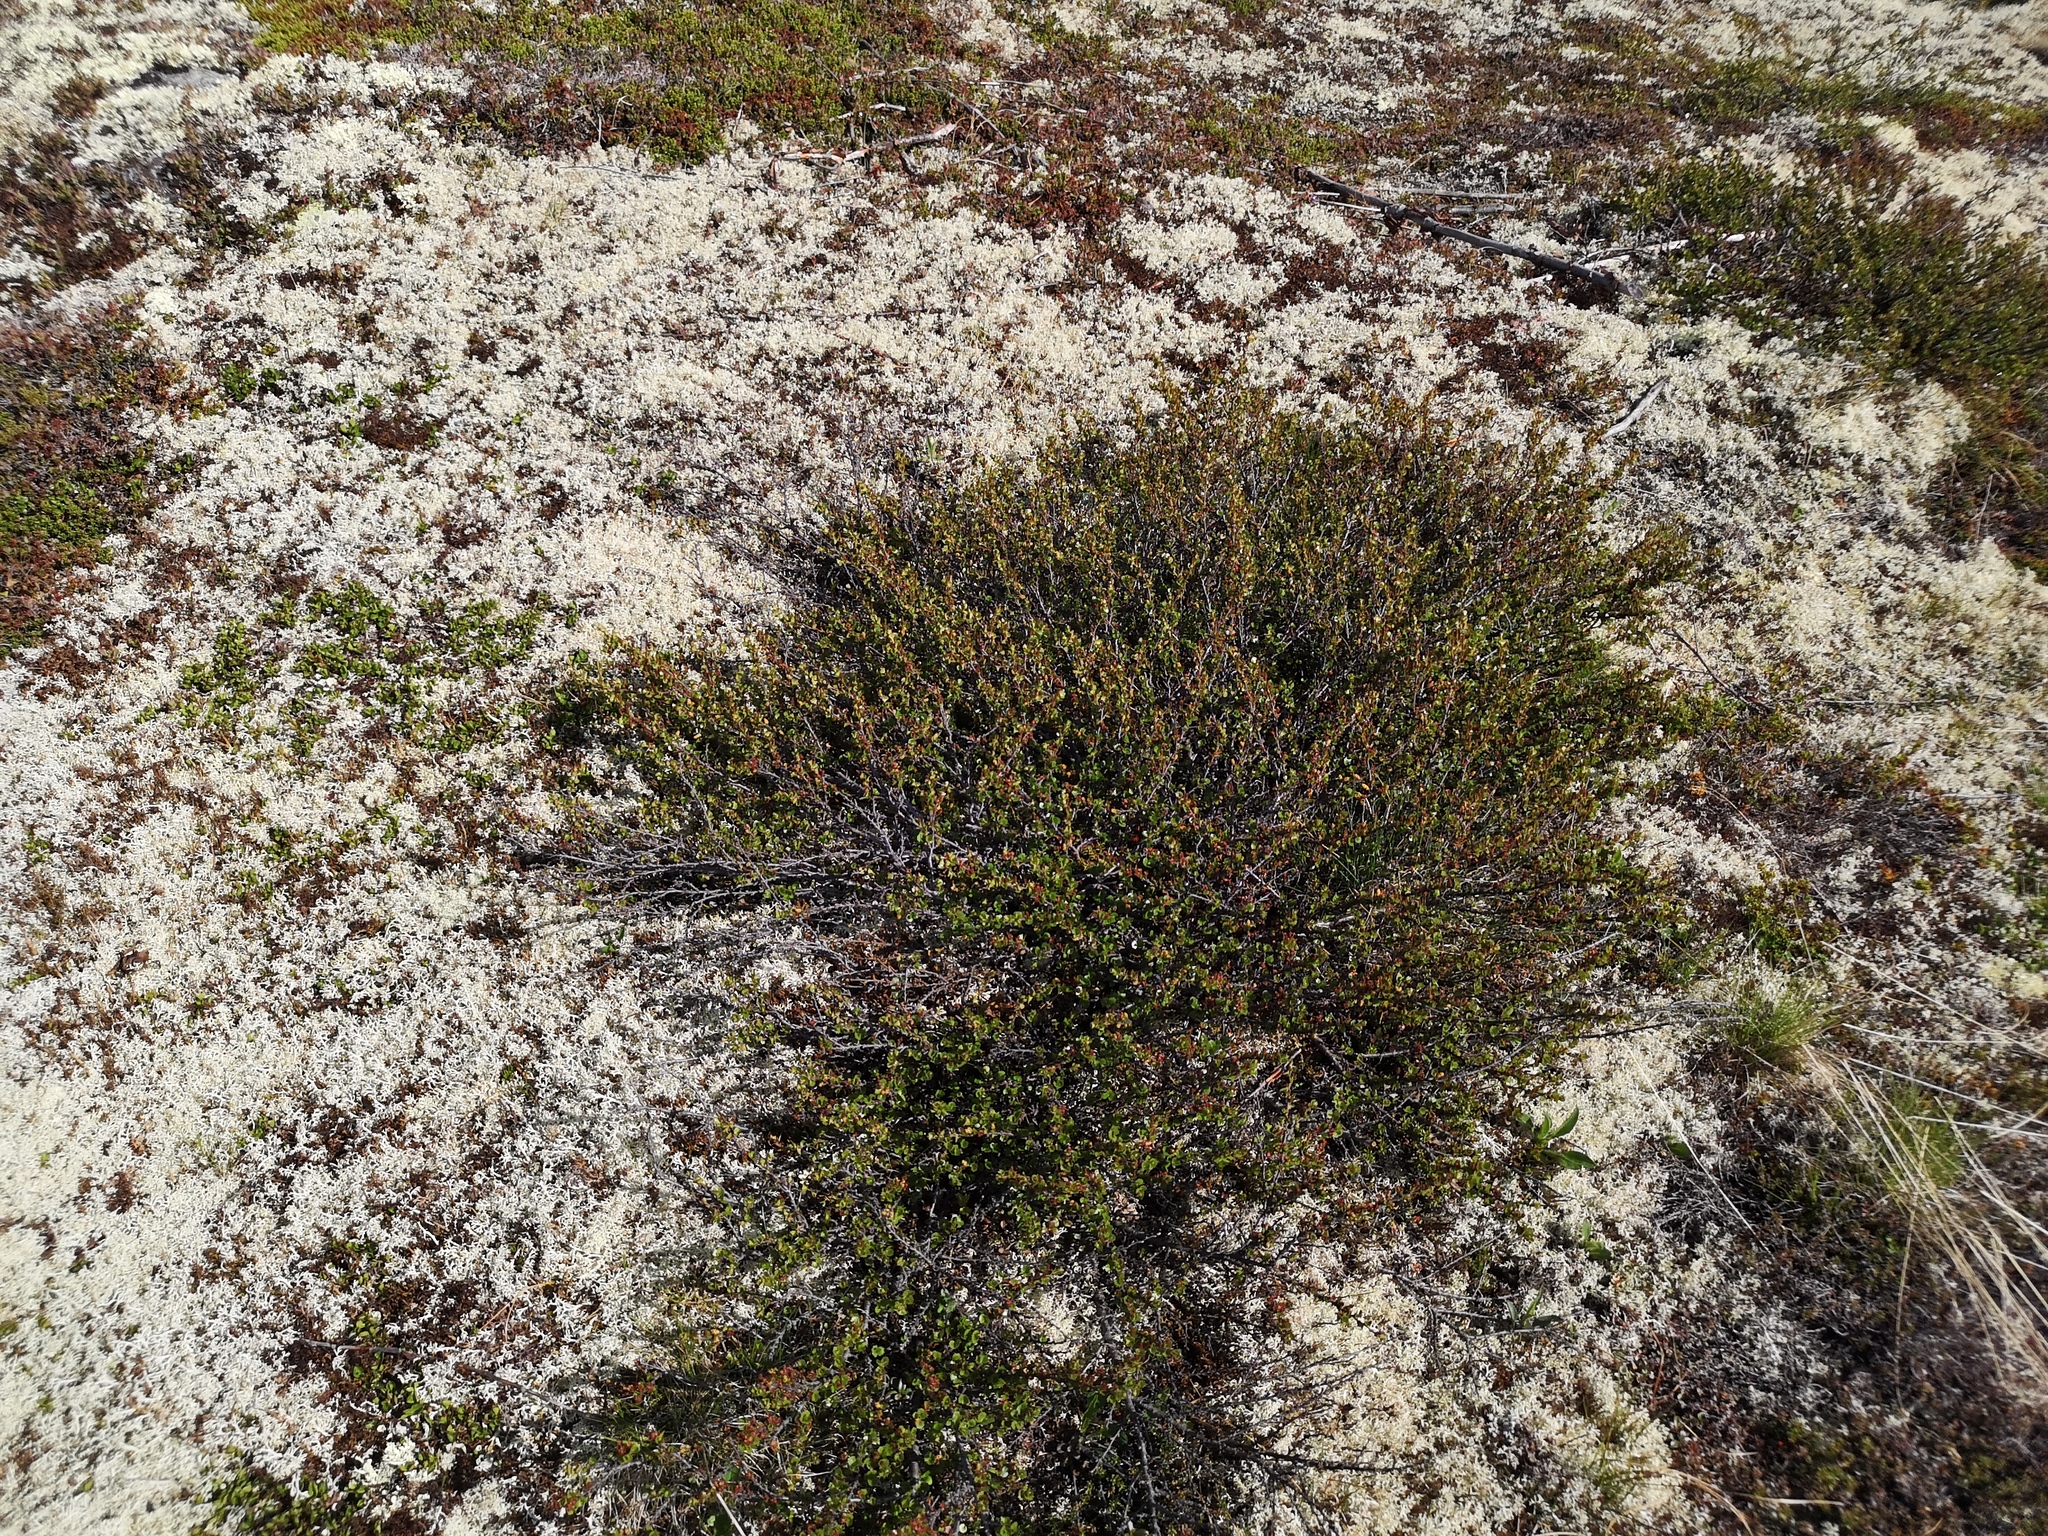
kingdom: Plantae
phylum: Tracheophyta
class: Magnoliopsida
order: Fagales
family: Betulaceae
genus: Betula
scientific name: Betula nana
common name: Arctic dwarf birch
